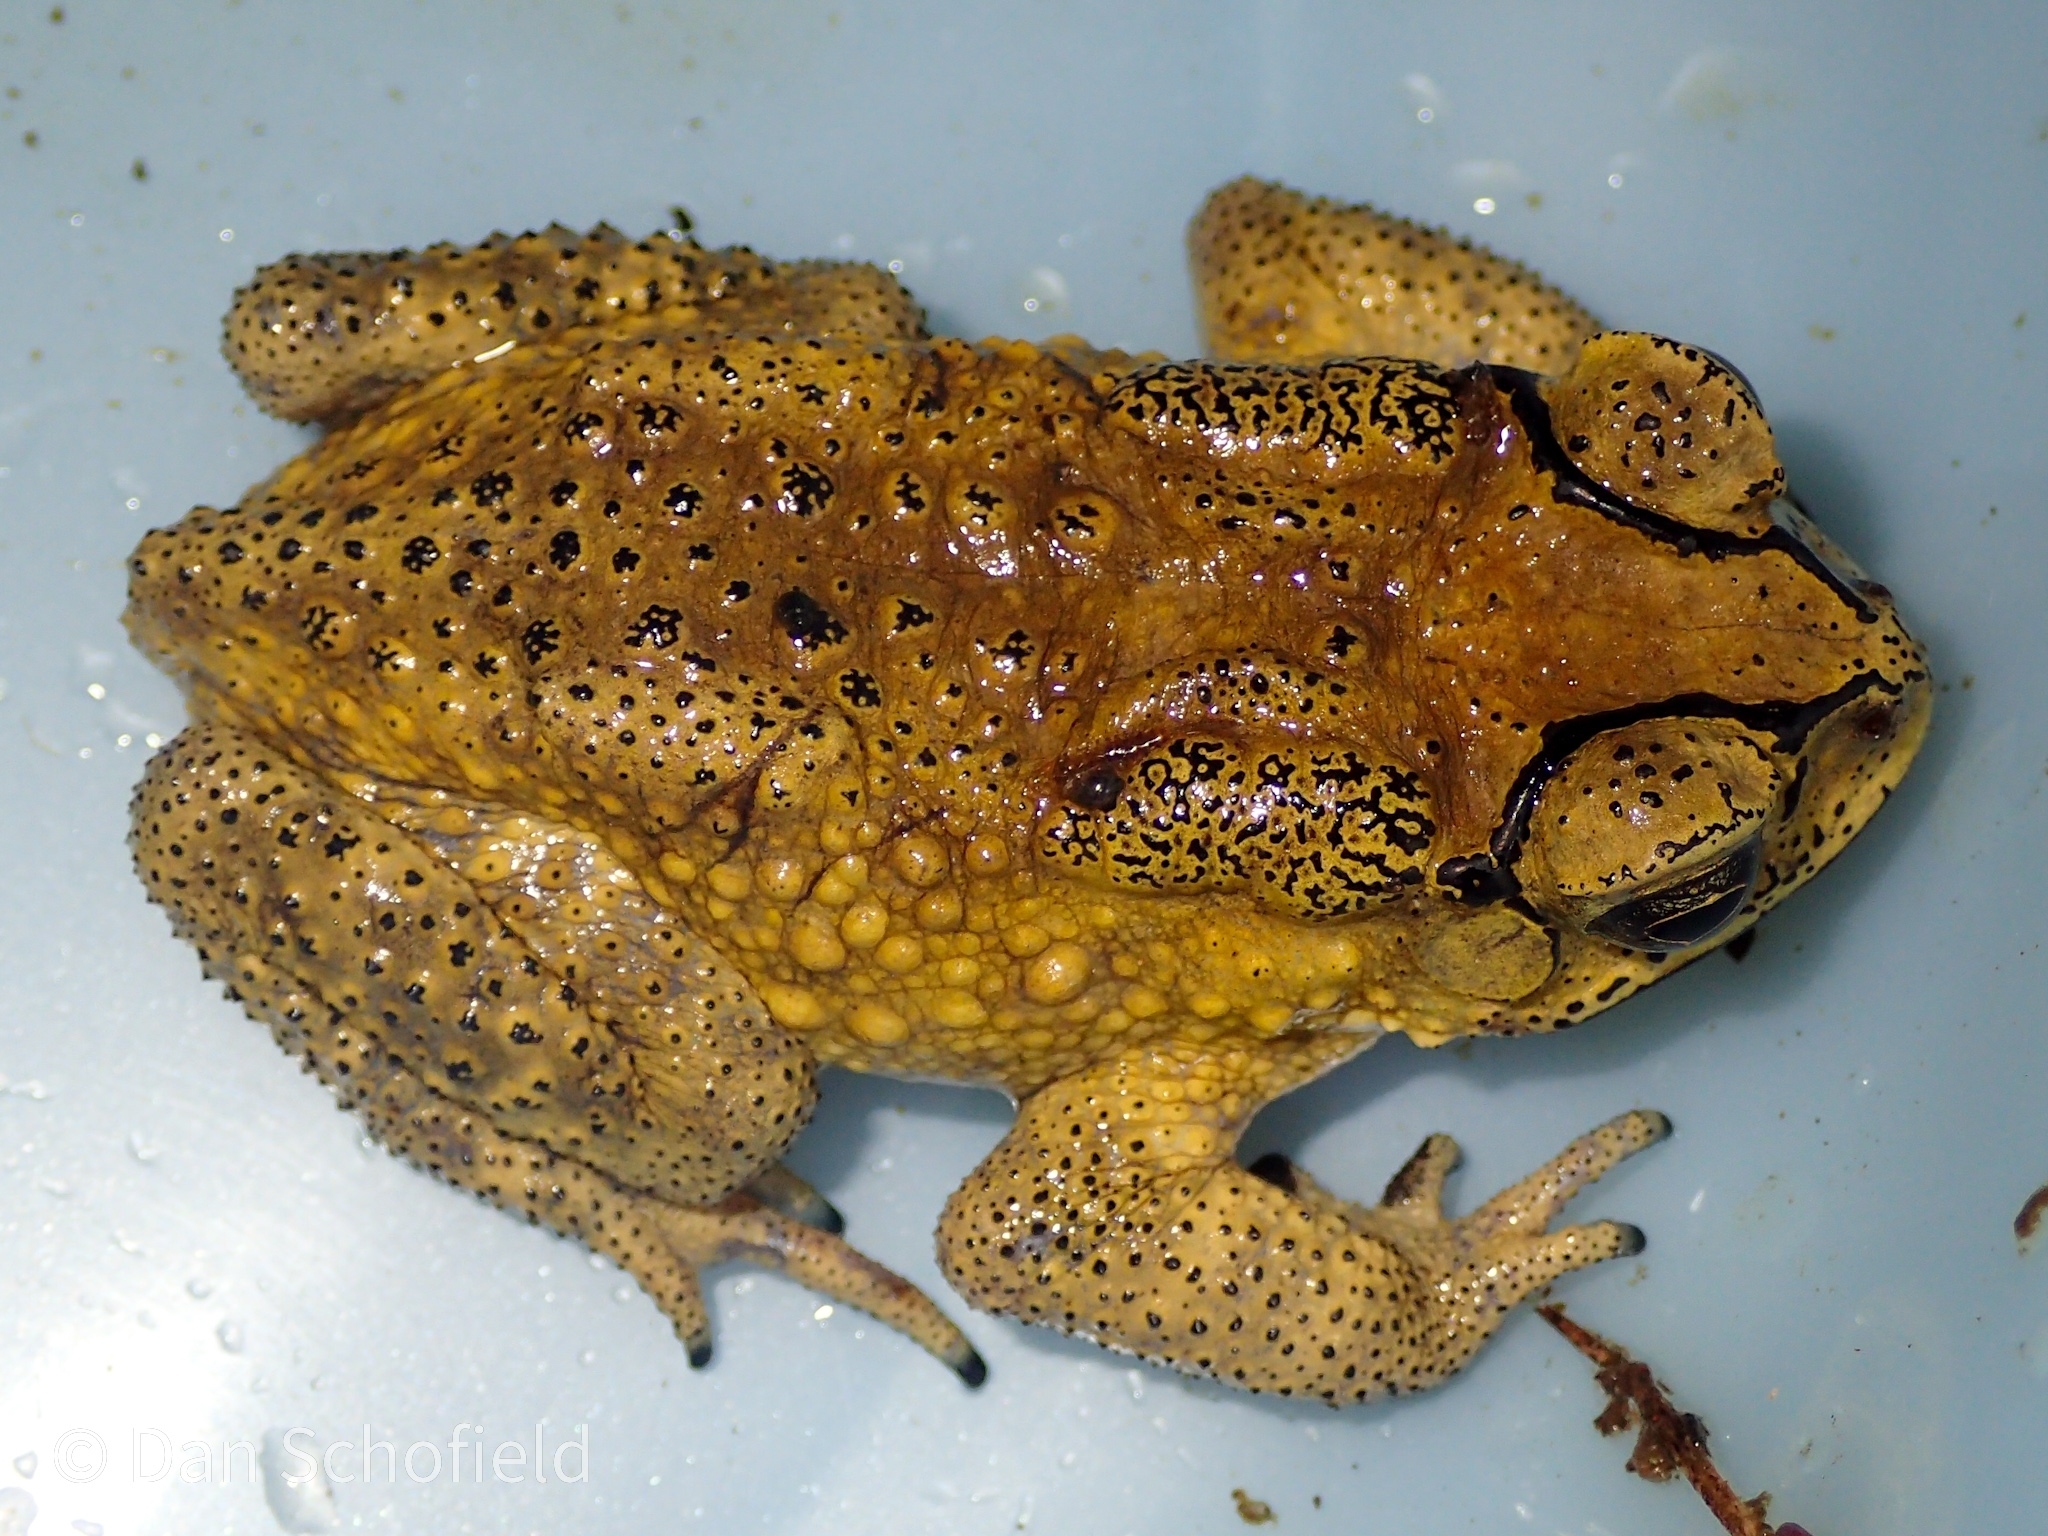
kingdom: Animalia
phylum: Chordata
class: Amphibia
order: Anura
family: Bufonidae
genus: Duttaphrynus
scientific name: Duttaphrynus melanostictus
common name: Common sunda toad
